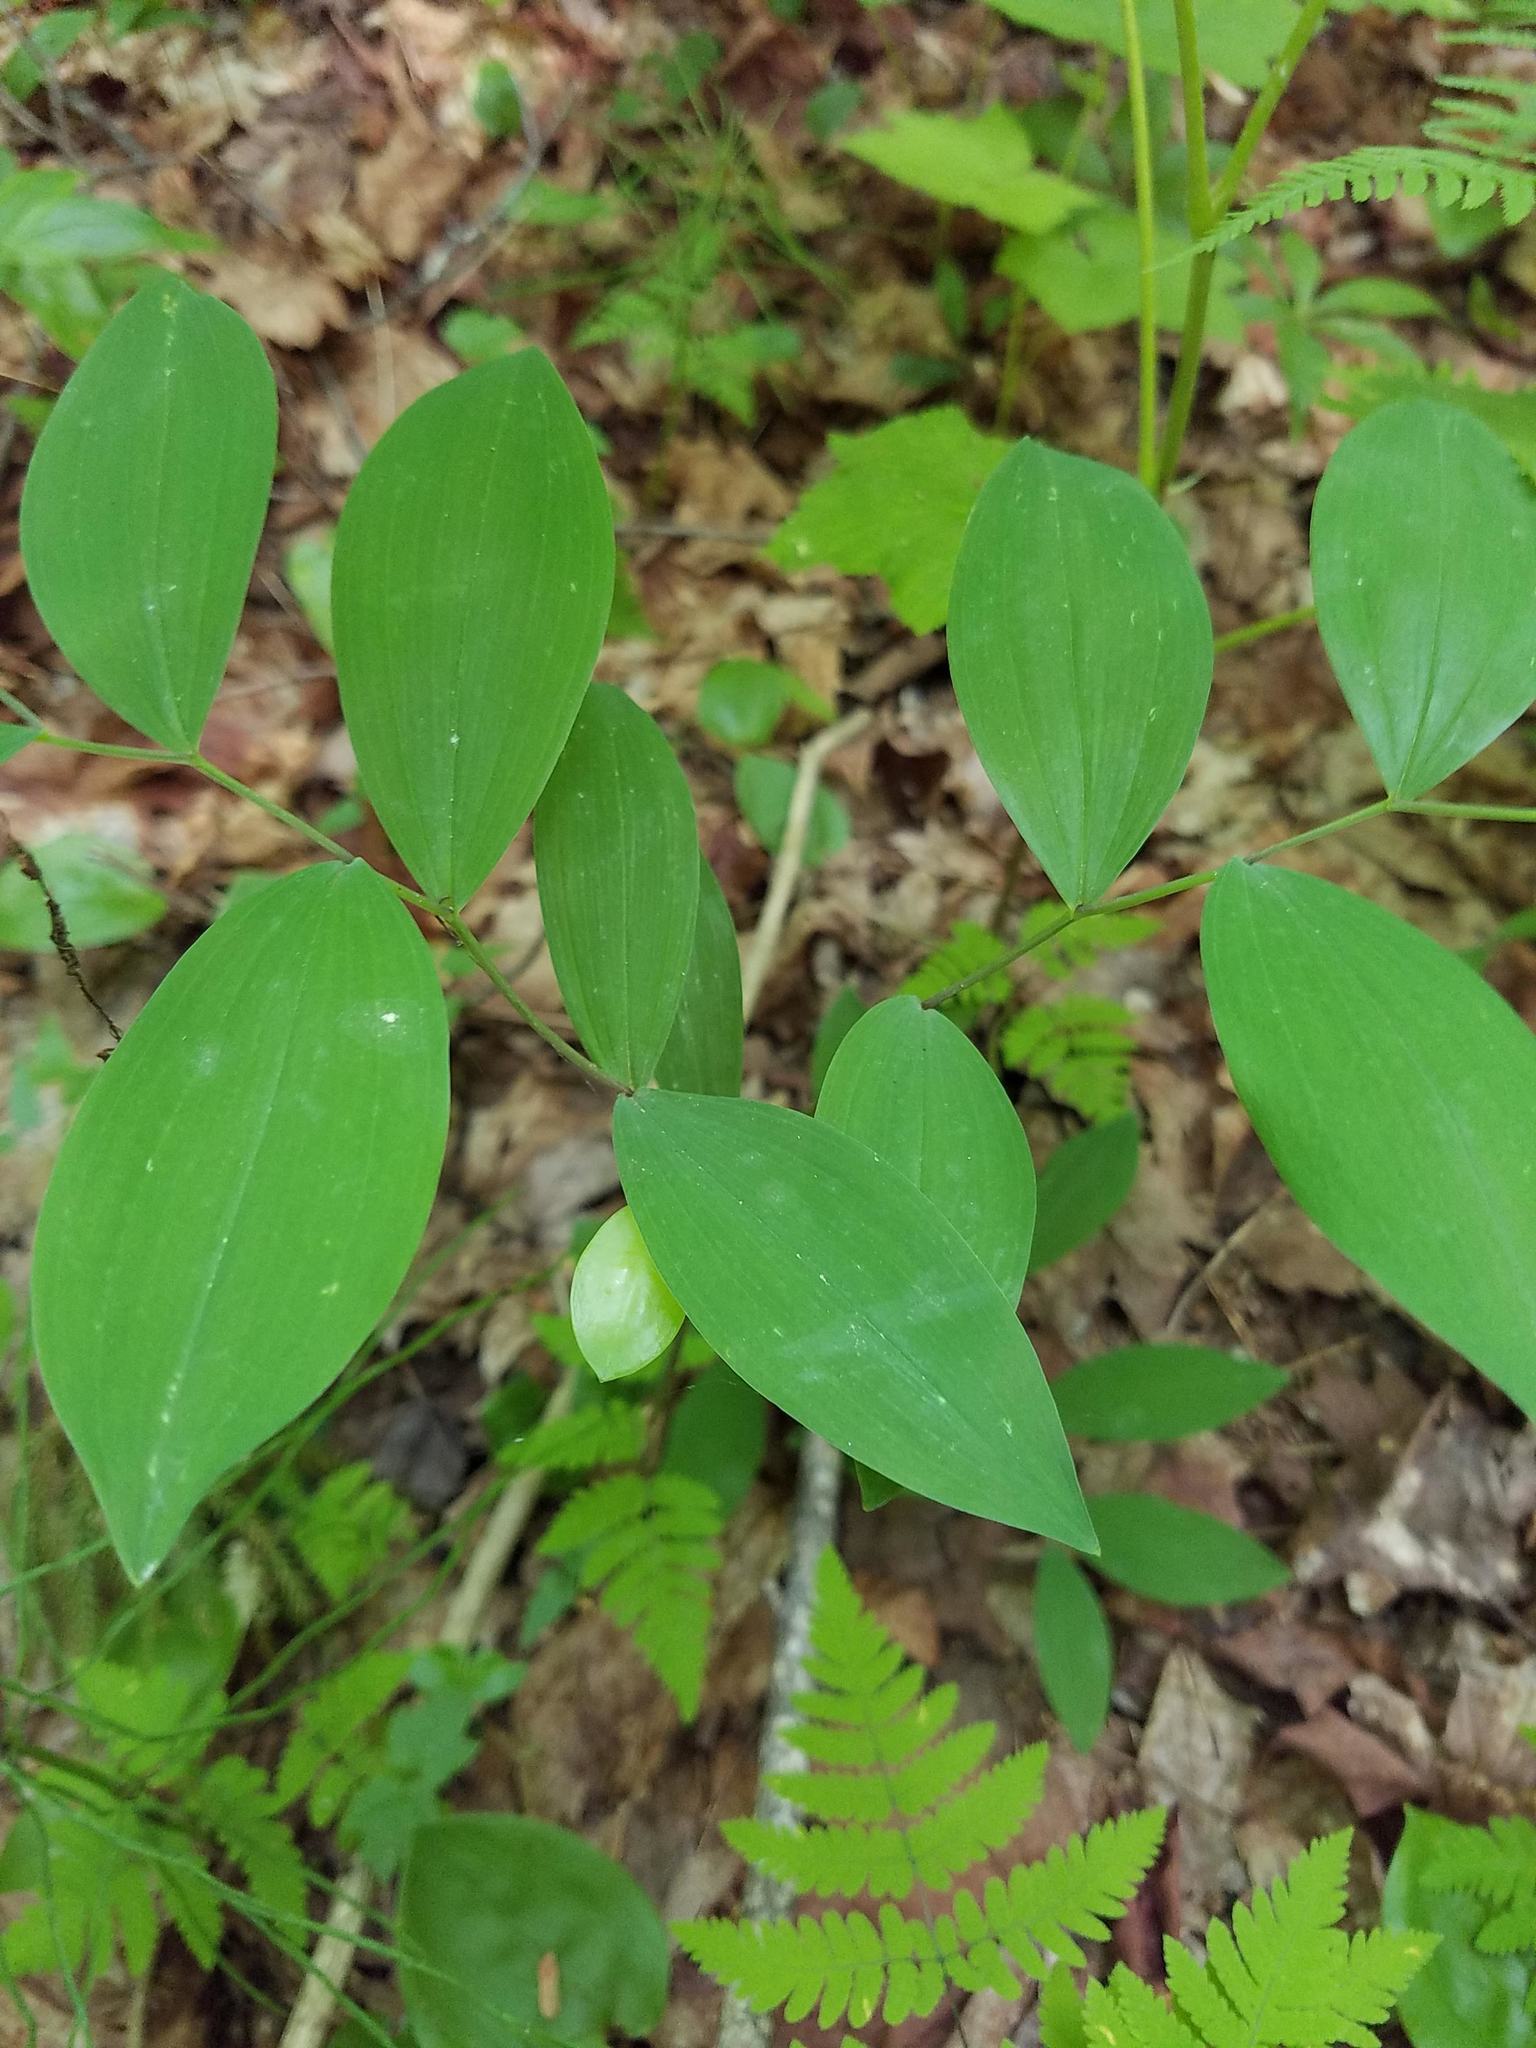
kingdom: Plantae
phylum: Tracheophyta
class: Liliopsida
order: Liliales
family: Colchicaceae
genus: Uvularia
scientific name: Uvularia sessilifolia
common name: Straw-lily
